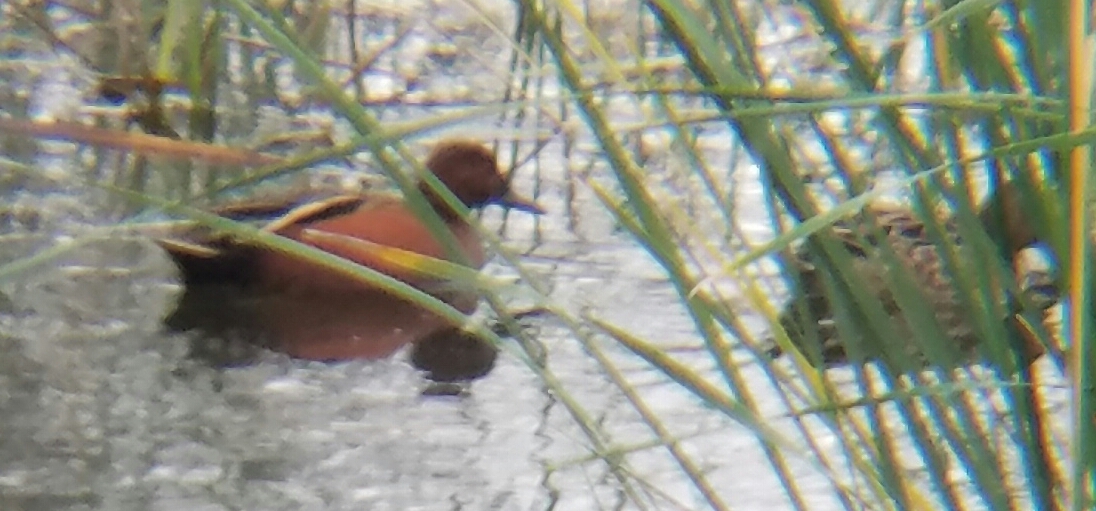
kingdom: Animalia
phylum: Chordata
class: Aves
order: Anseriformes
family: Anatidae
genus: Spatula
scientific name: Spatula cyanoptera
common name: Cinnamon teal
